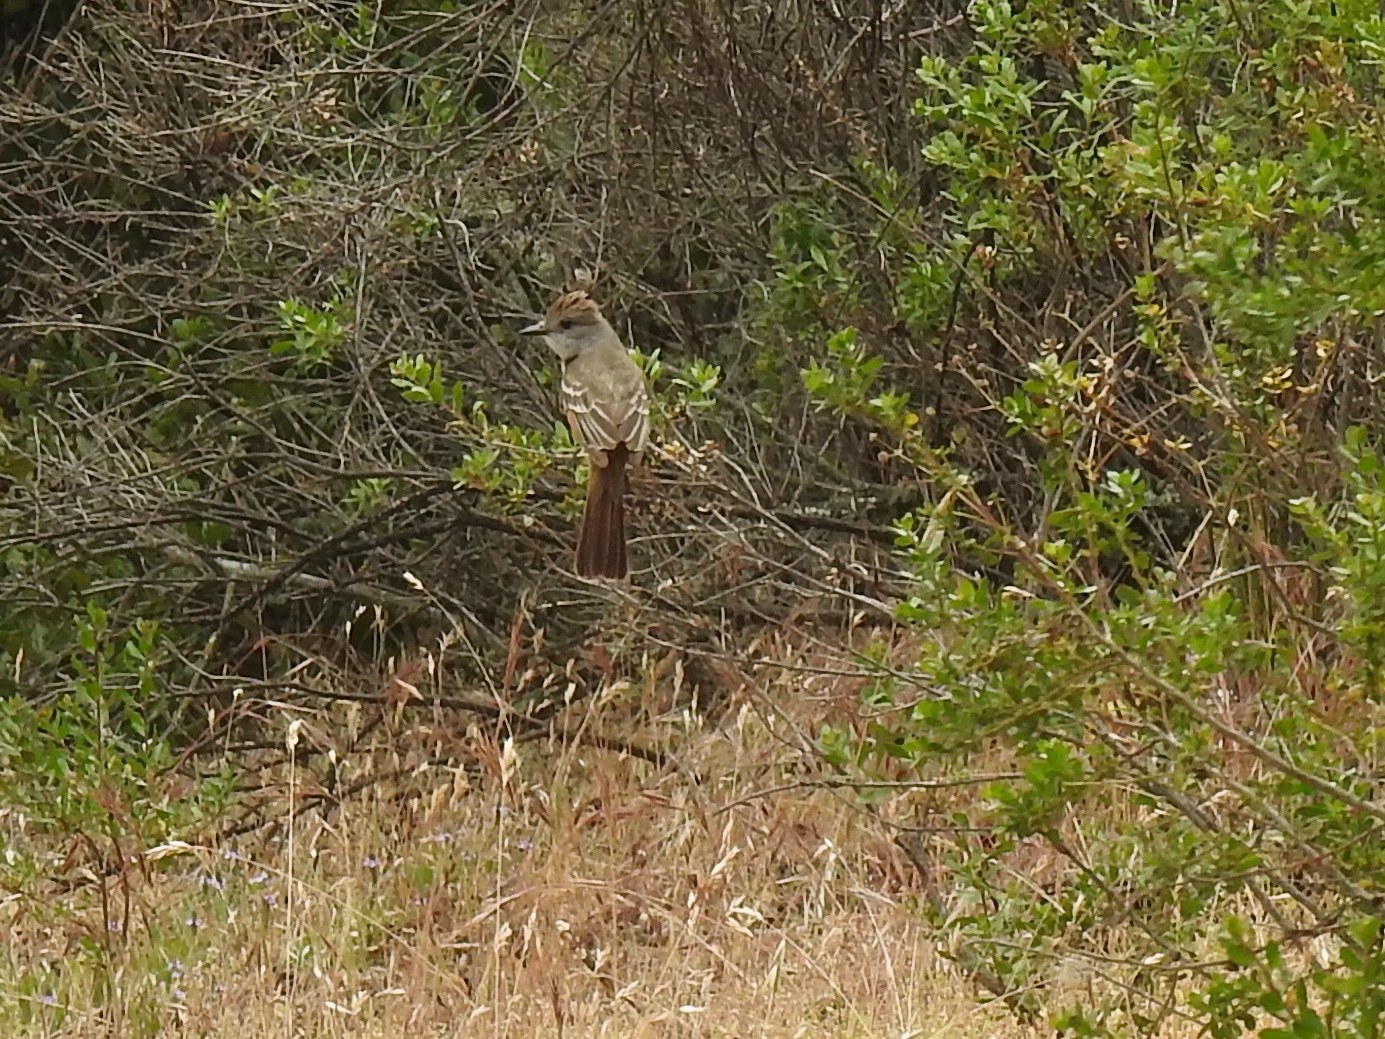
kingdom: Animalia
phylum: Chordata
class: Aves
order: Passeriformes
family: Tyrannidae
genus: Myiarchus
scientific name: Myiarchus cinerascens
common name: Ash-throated flycatcher
